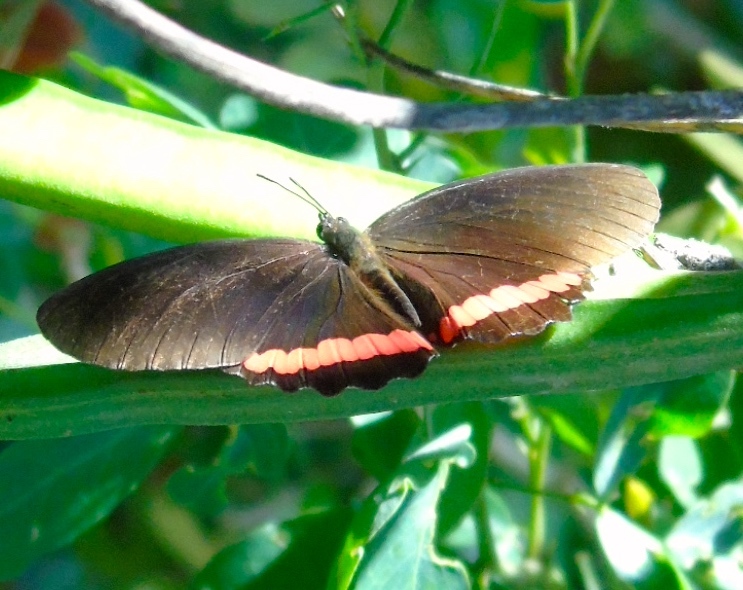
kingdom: Animalia
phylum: Arthropoda
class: Insecta
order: Lepidoptera
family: Nymphalidae
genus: Biblis
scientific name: Biblis aganisa
